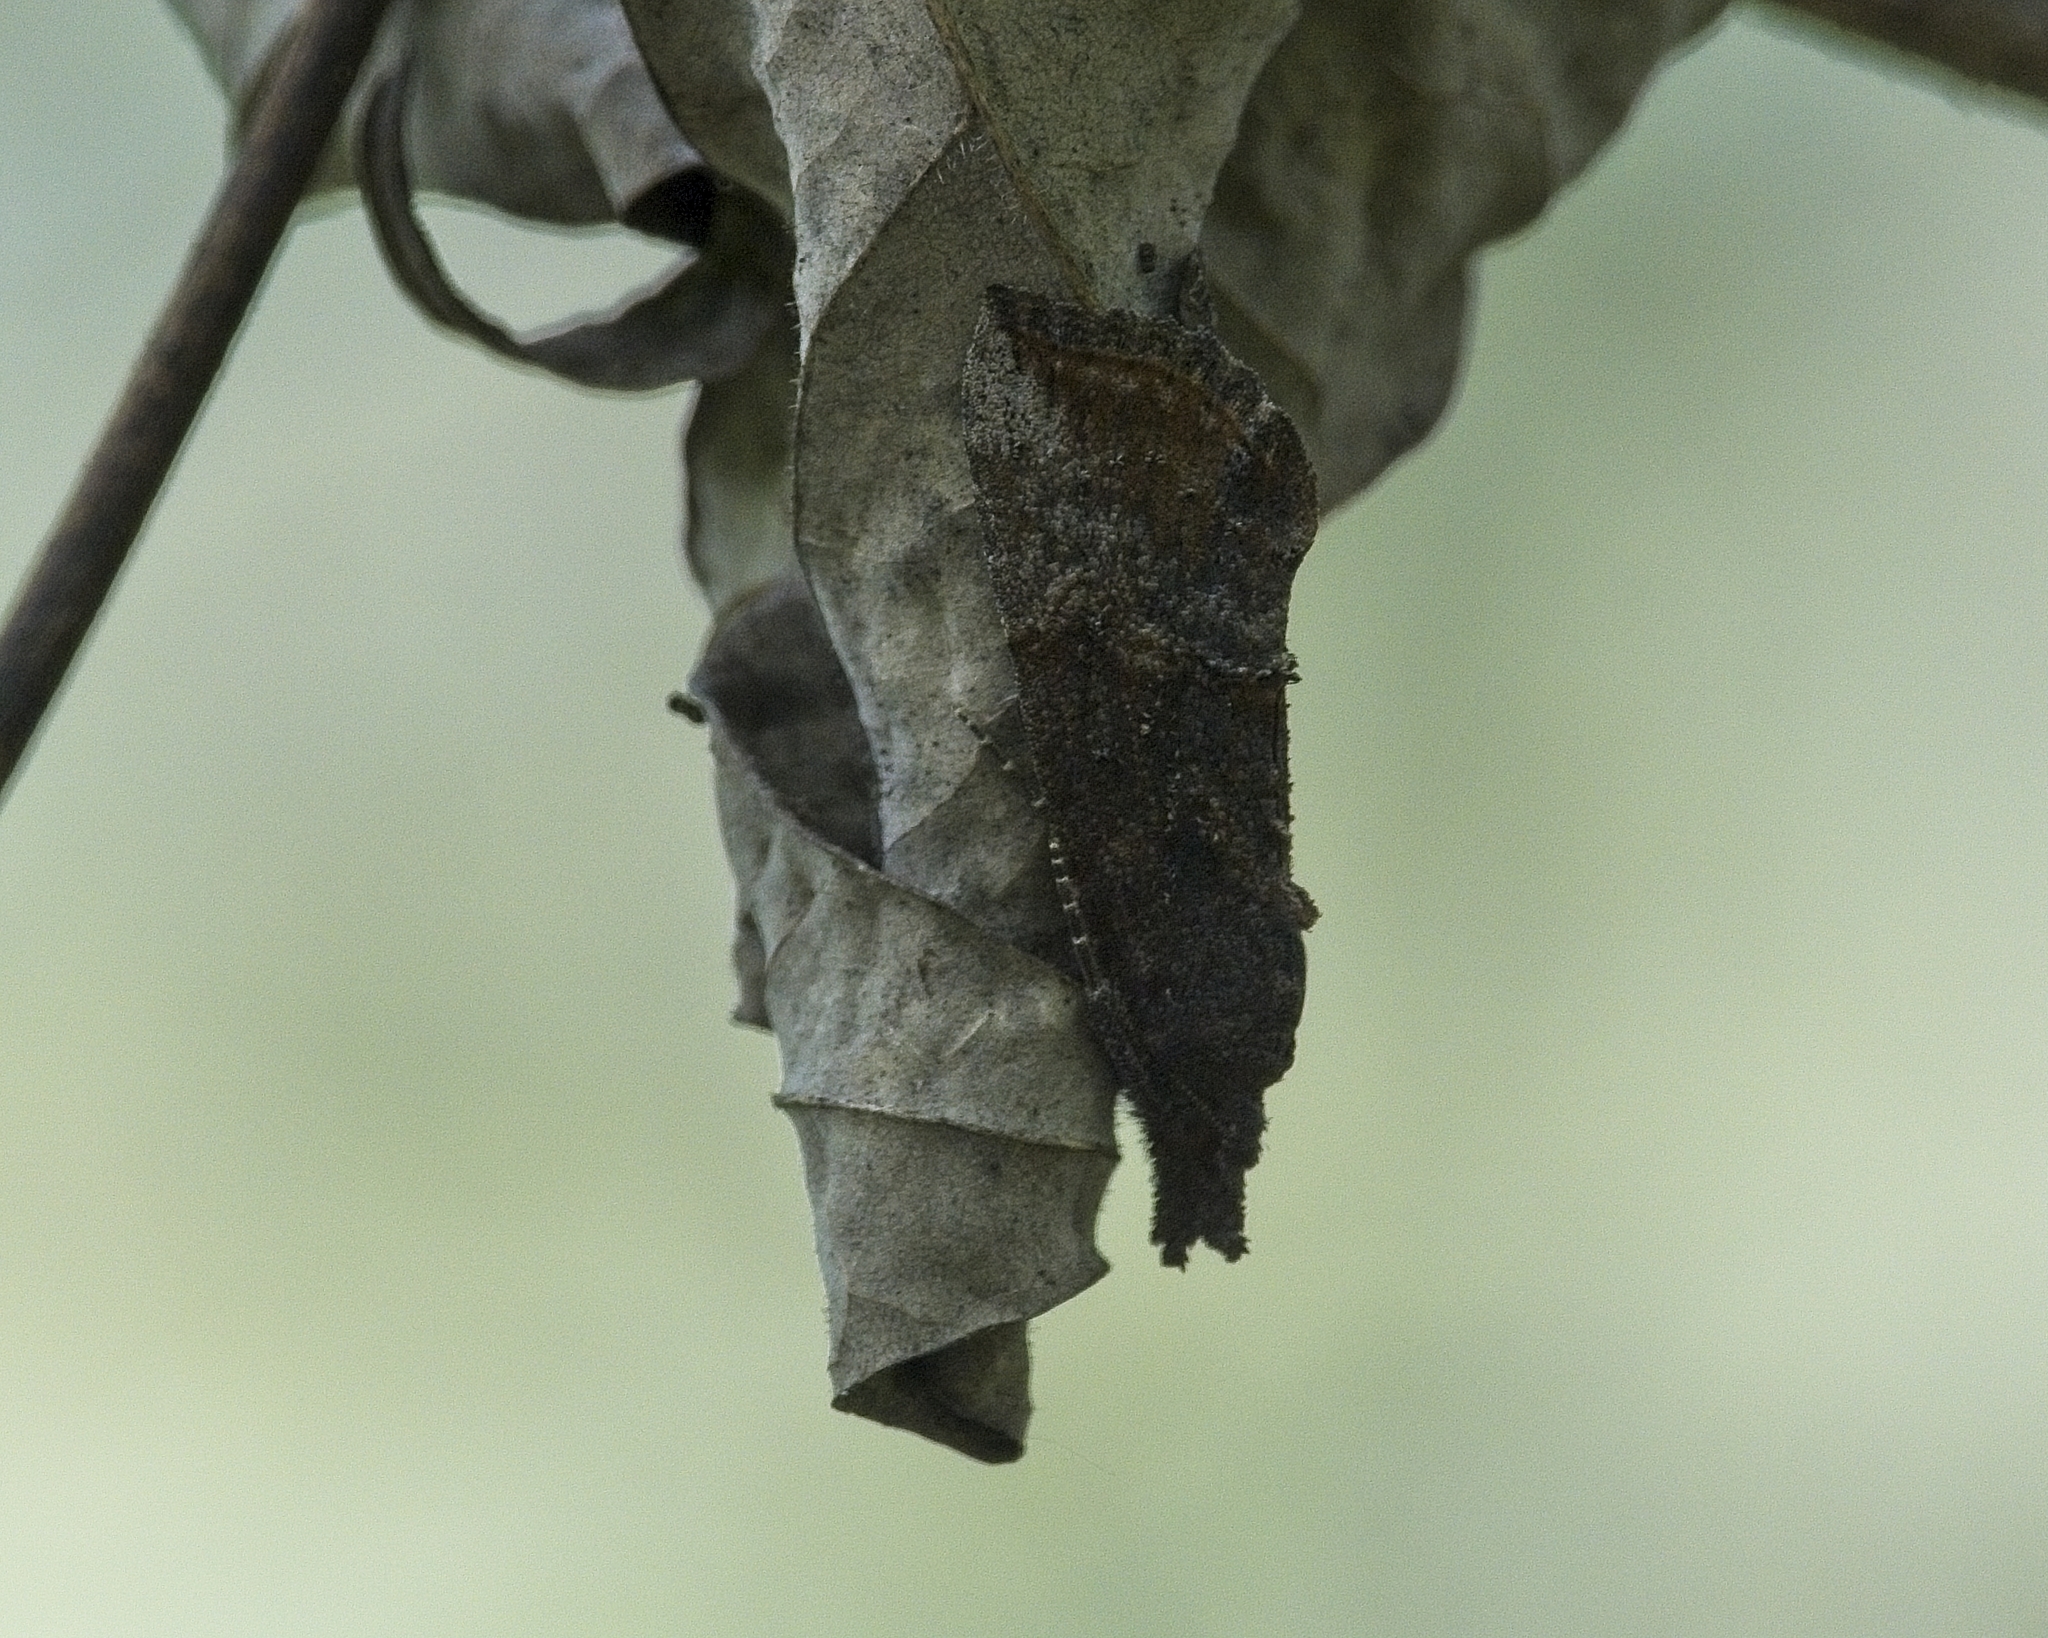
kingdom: Animalia
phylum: Arthropoda
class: Insecta
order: Lepidoptera
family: Erebidae
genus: Hypena
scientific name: Hypena scabra
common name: Green cloverworm
